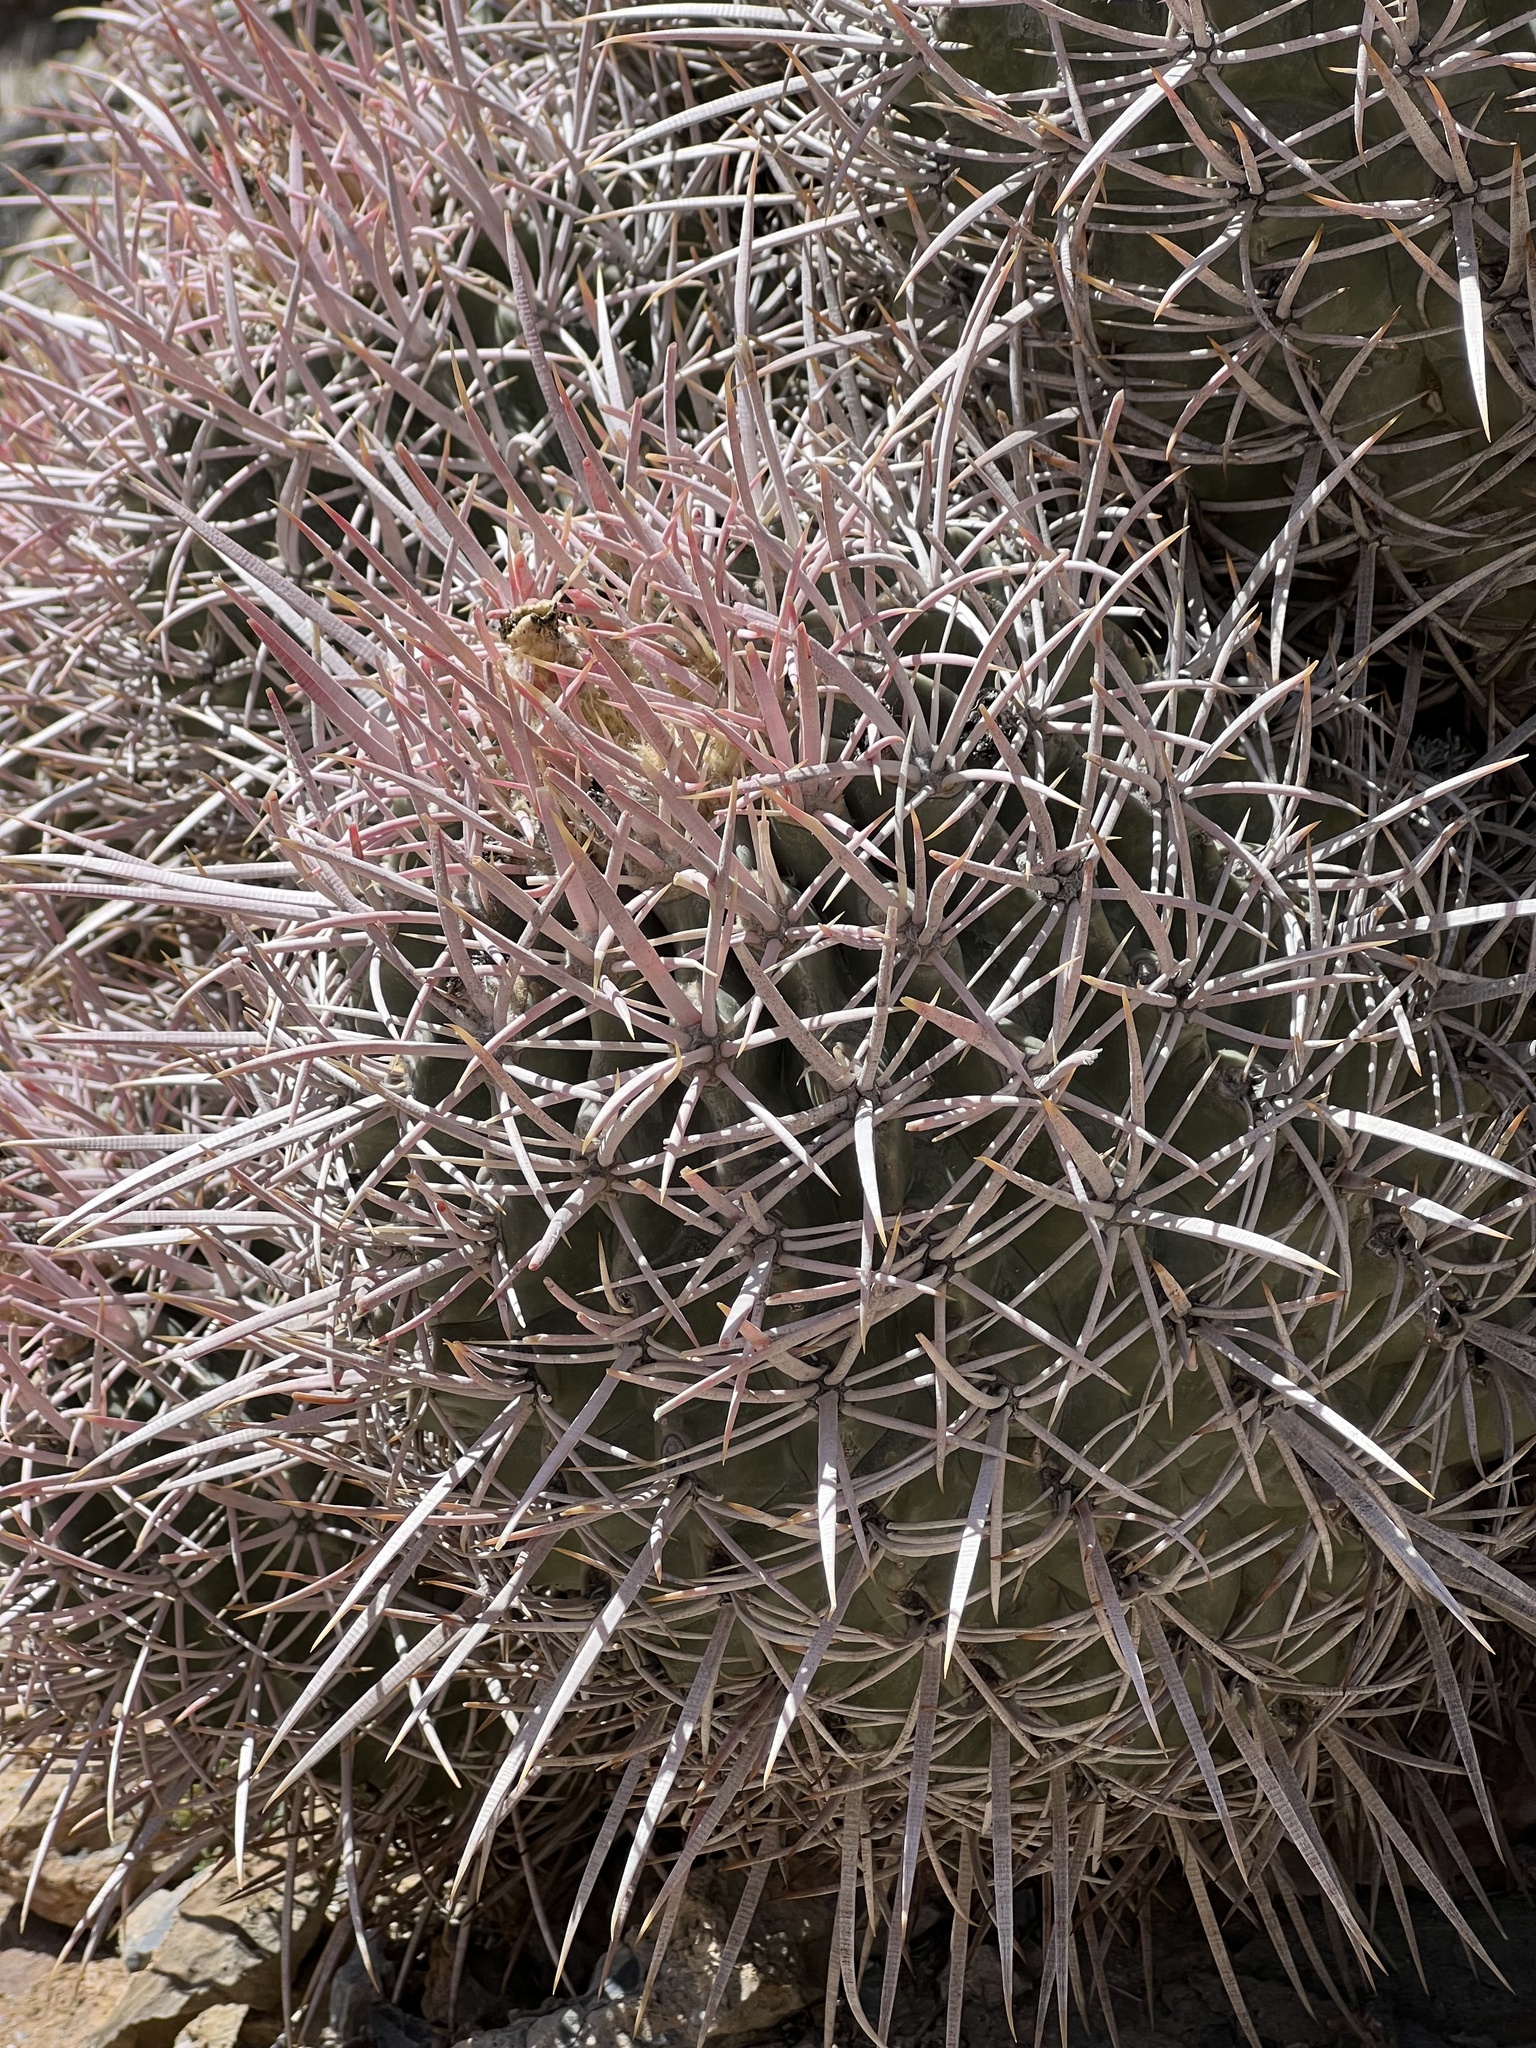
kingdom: Plantae
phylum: Tracheophyta
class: Magnoliopsida
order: Caryophyllales
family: Cactaceae
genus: Echinocactus
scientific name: Echinocactus polycephalus
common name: Cottontop cactus
